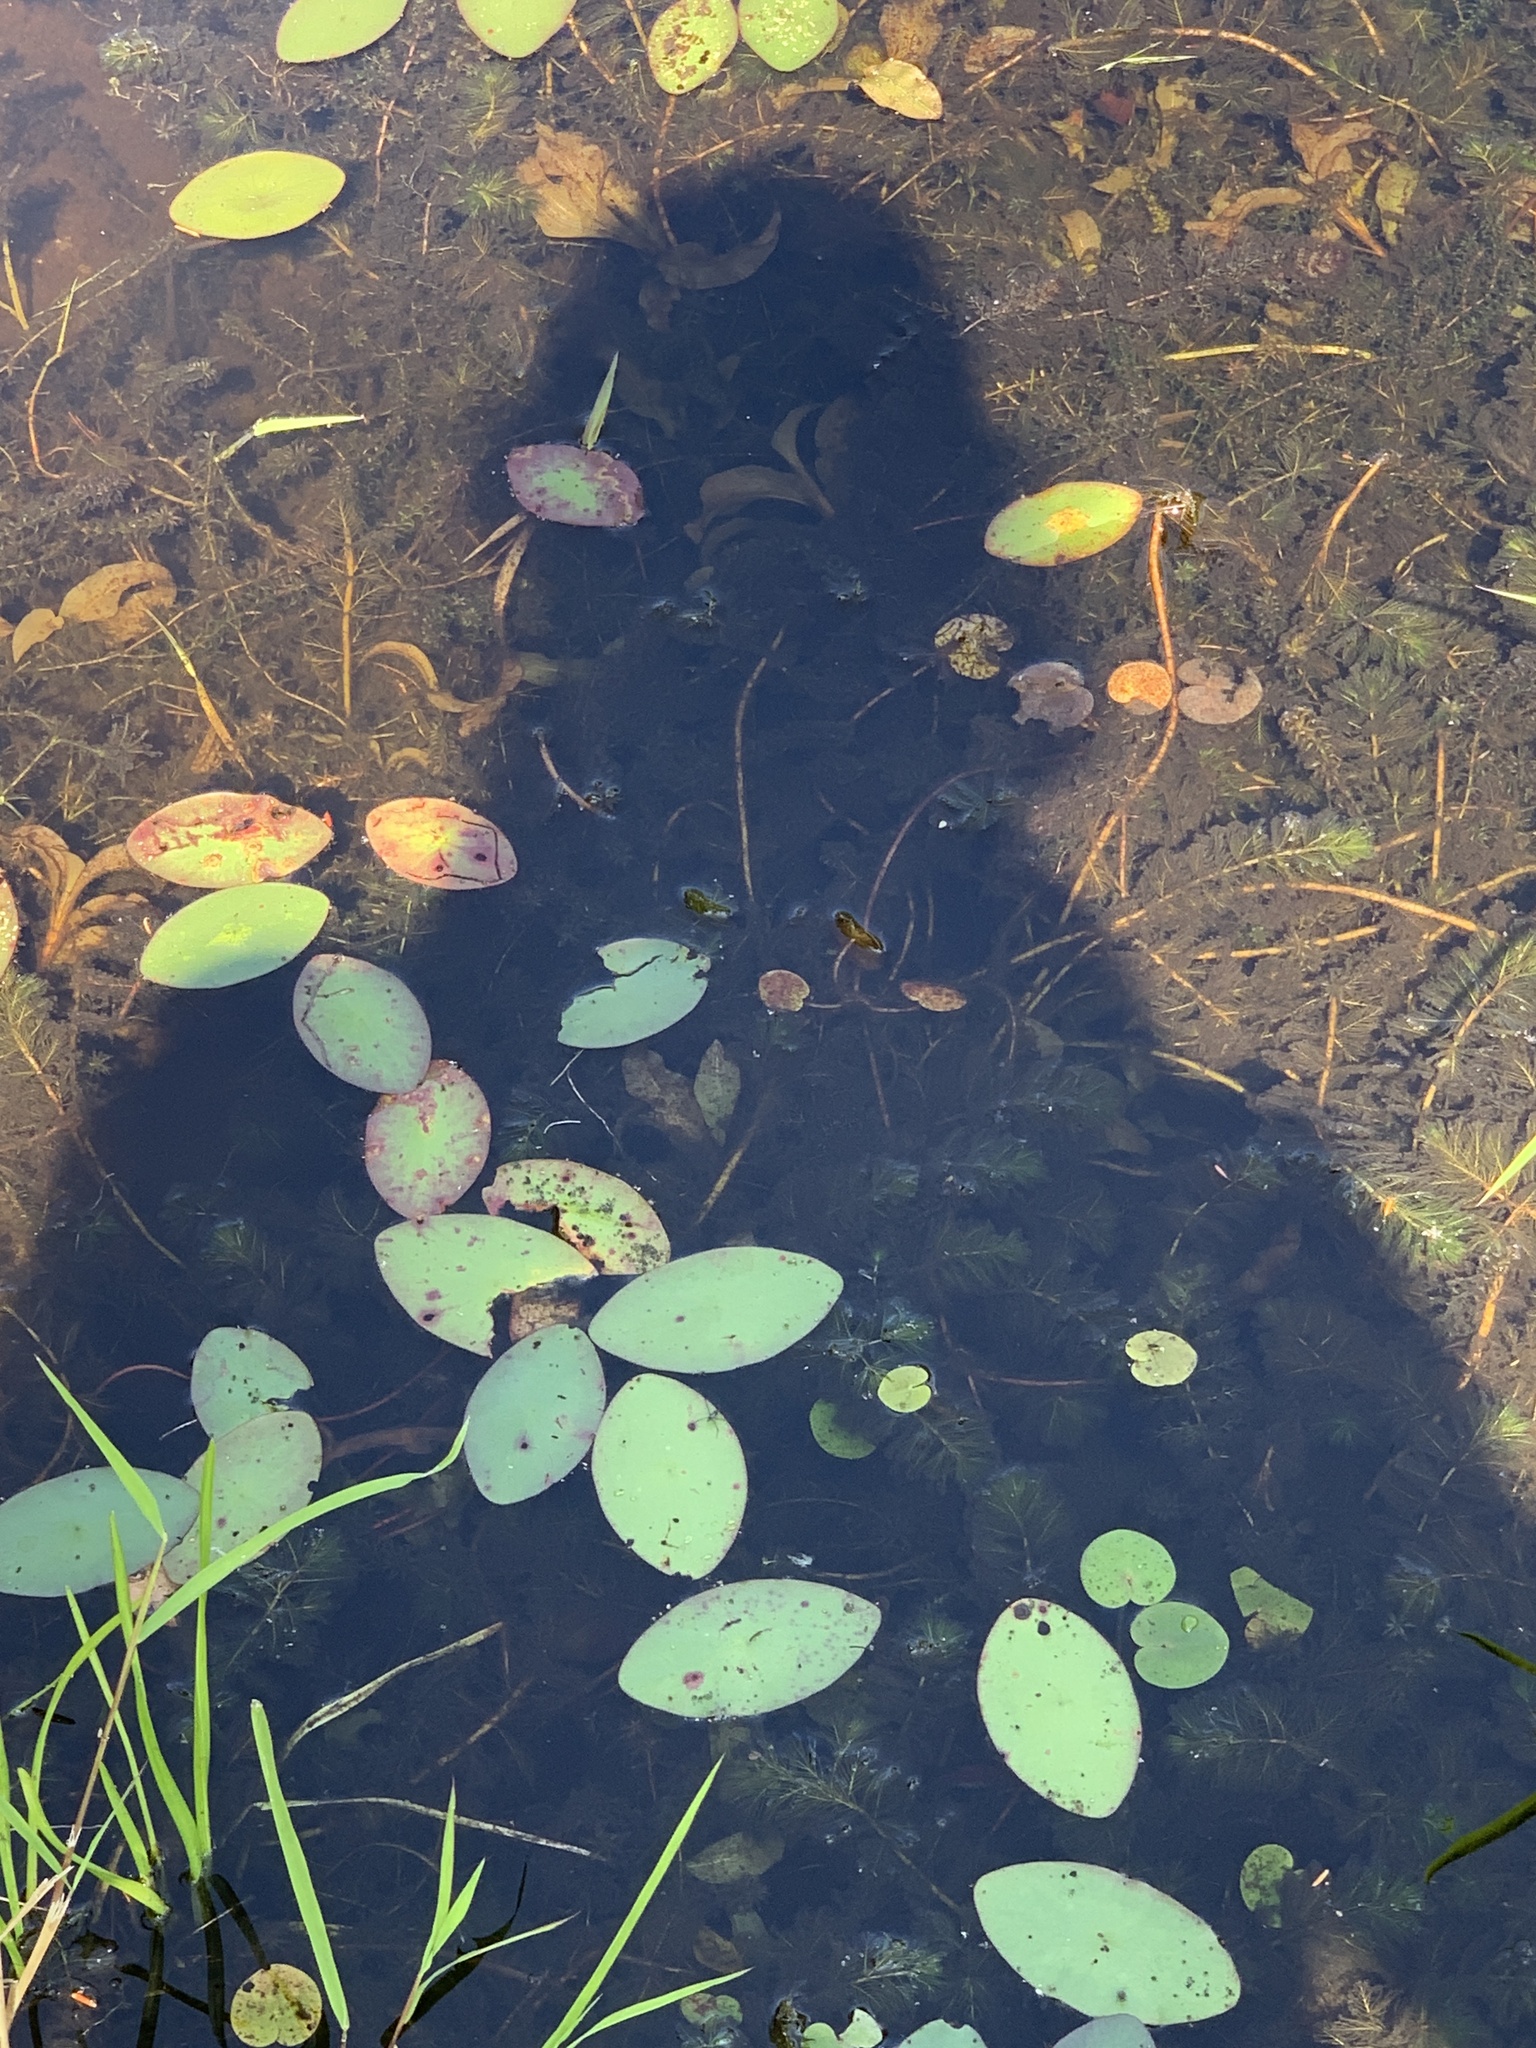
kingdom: Plantae
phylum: Tracheophyta
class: Magnoliopsida
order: Nymphaeales
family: Cabombaceae
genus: Brasenia
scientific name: Brasenia schreberi
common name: Water-shield
